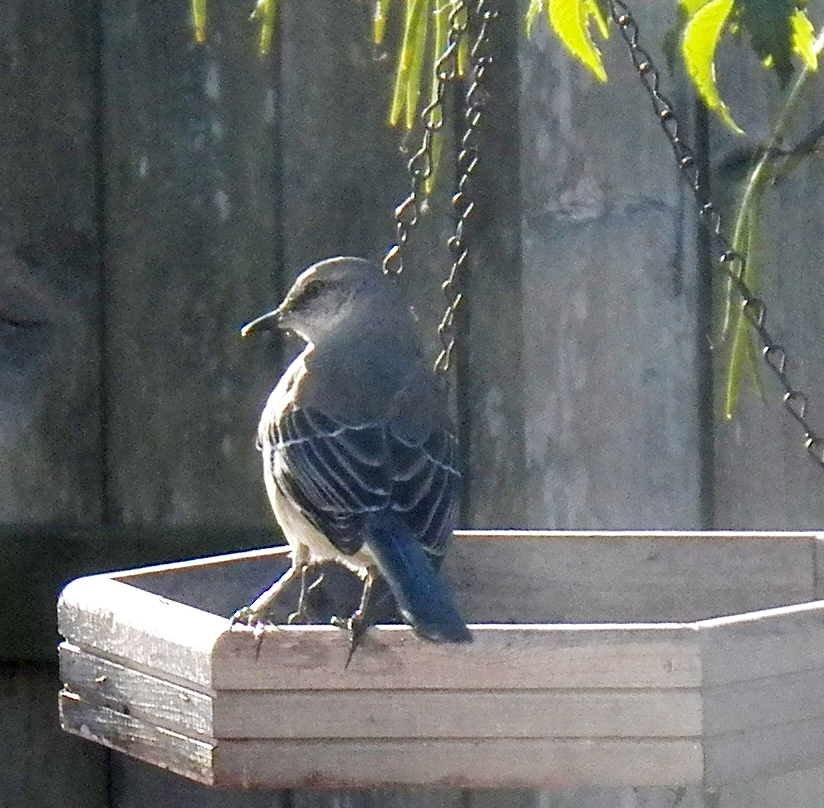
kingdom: Animalia
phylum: Chordata
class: Aves
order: Passeriformes
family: Mimidae
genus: Mimus
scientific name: Mimus polyglottos
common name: Northern mockingbird
